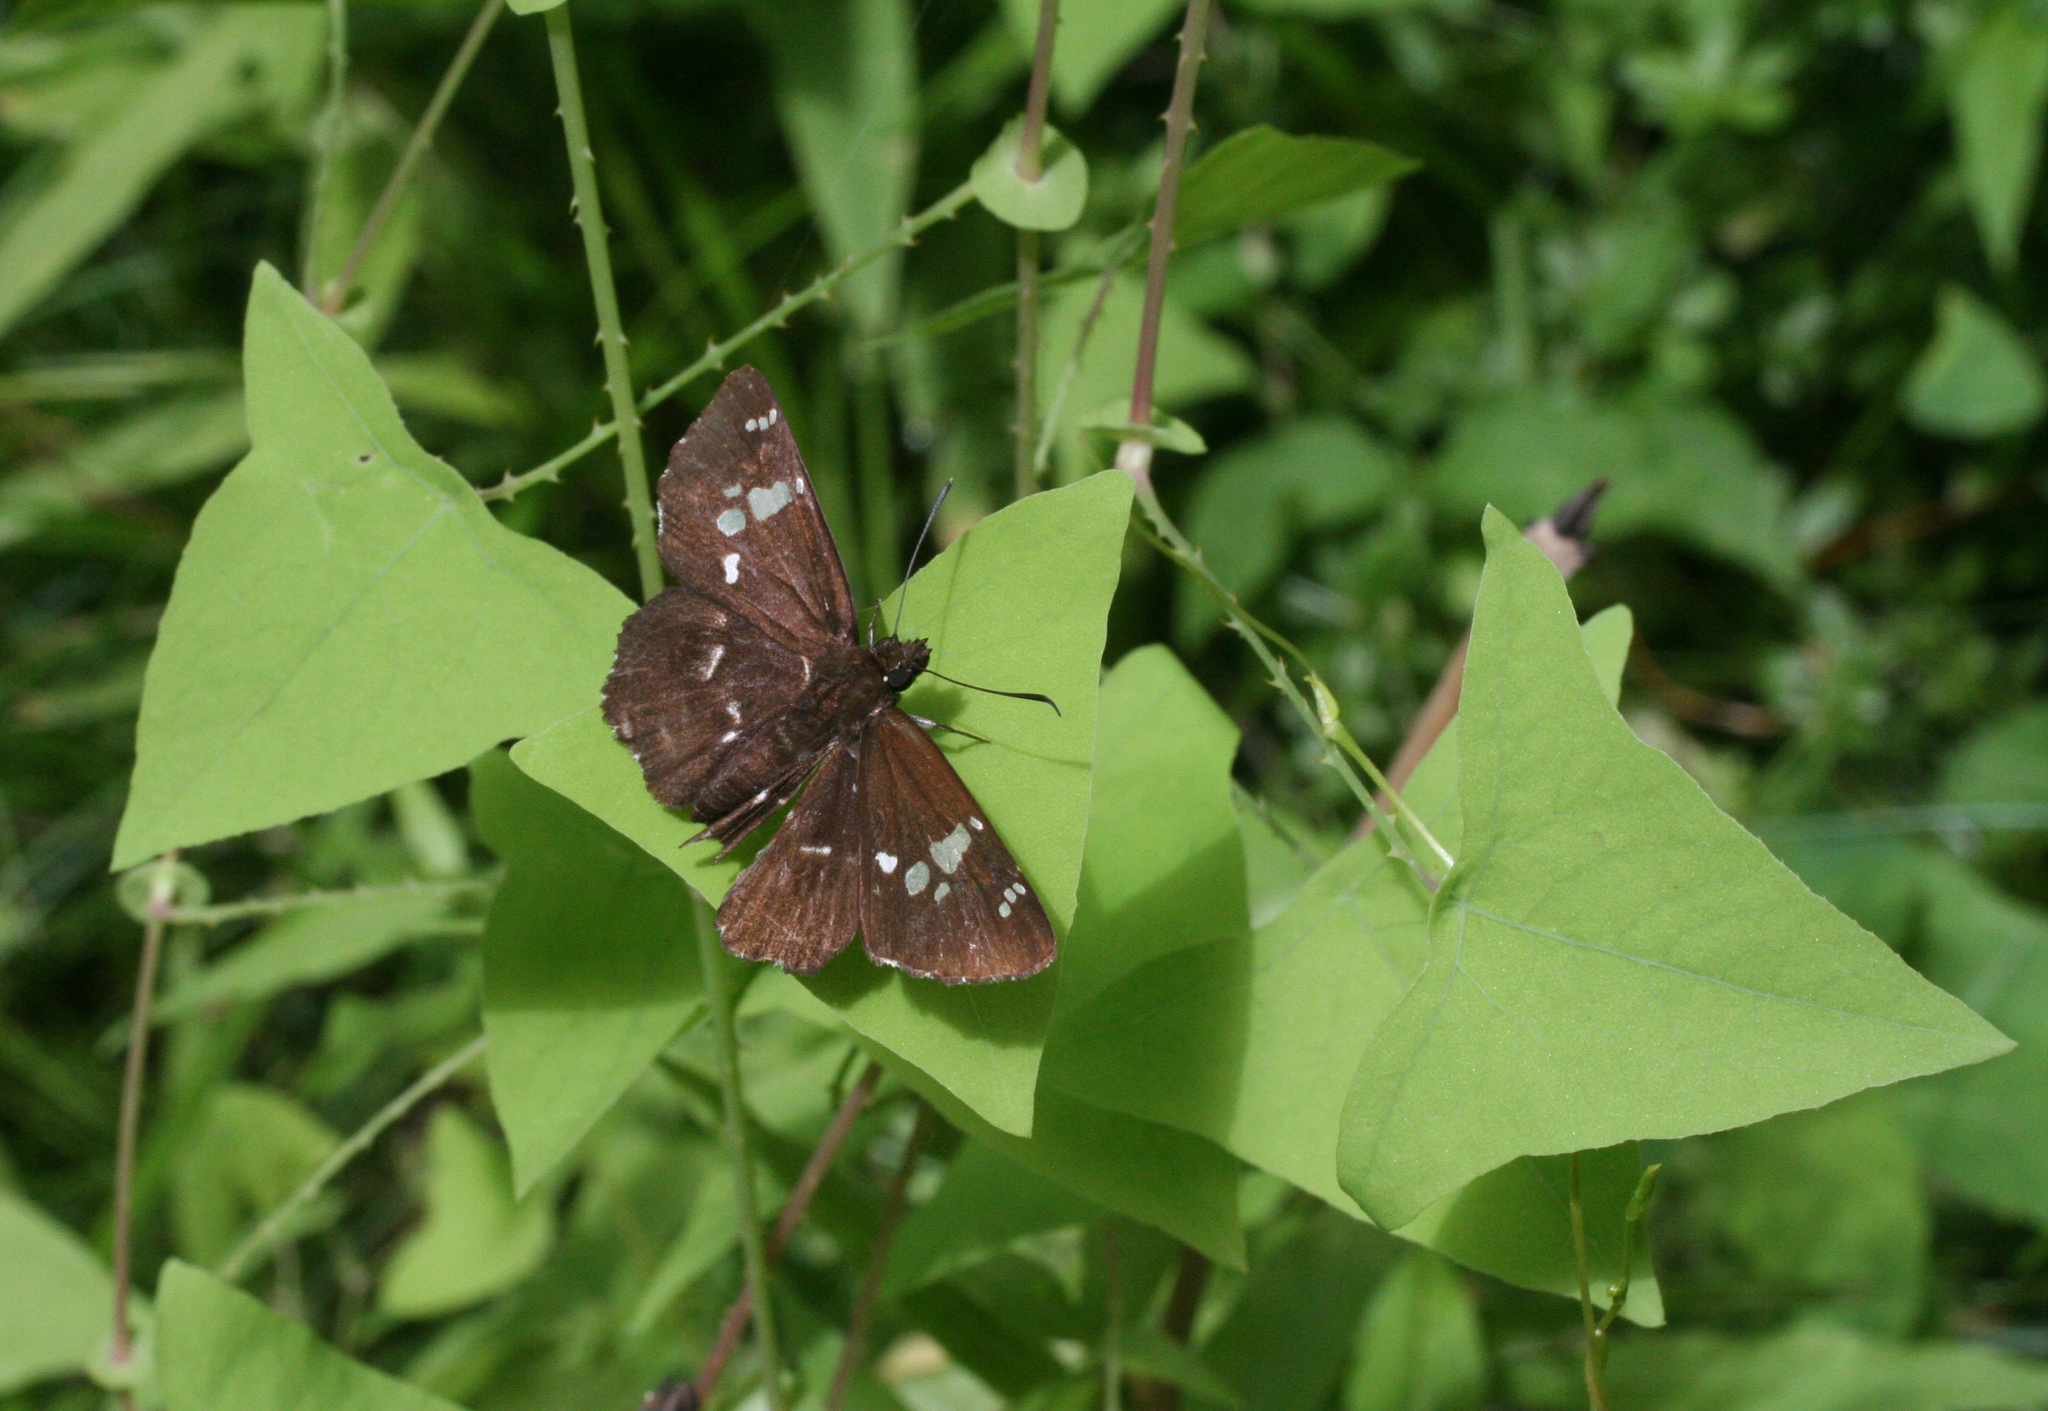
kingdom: Plantae
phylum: Tracheophyta
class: Magnoliopsida
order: Caryophyllales
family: Polygonaceae
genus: Persicaria
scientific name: Persicaria perfoliata
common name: Asiatic tearthumb
